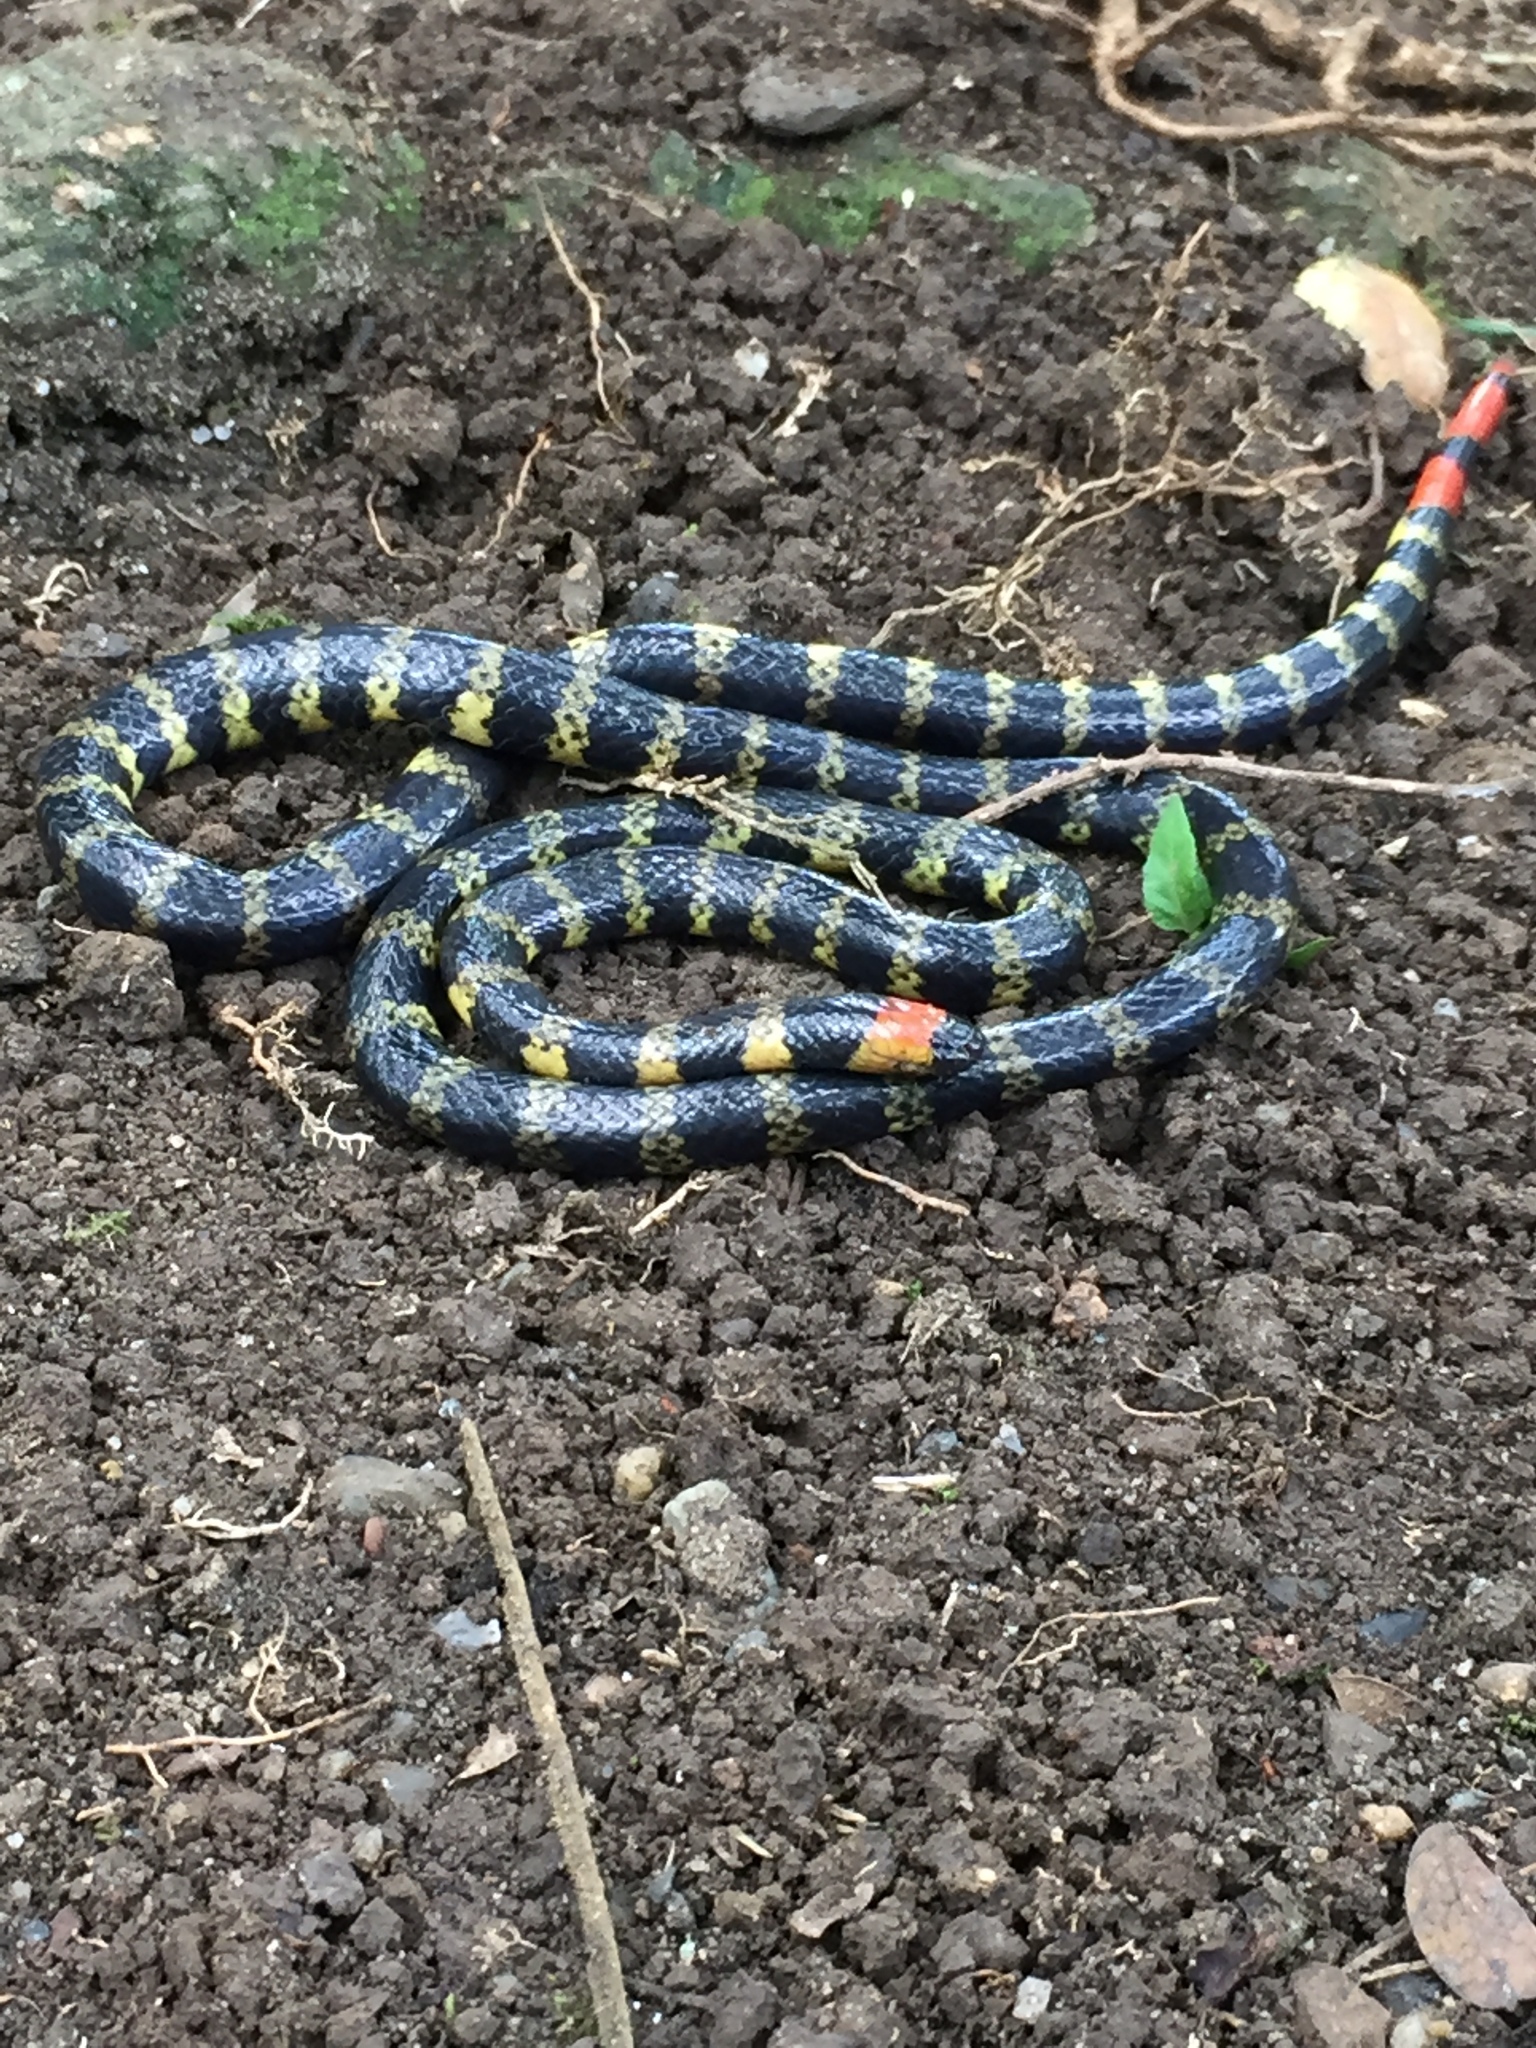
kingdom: Animalia
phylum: Chordata
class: Squamata
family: Elapidae
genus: Micrurus
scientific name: Micrurus mipartitus
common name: Redtail coral snake
